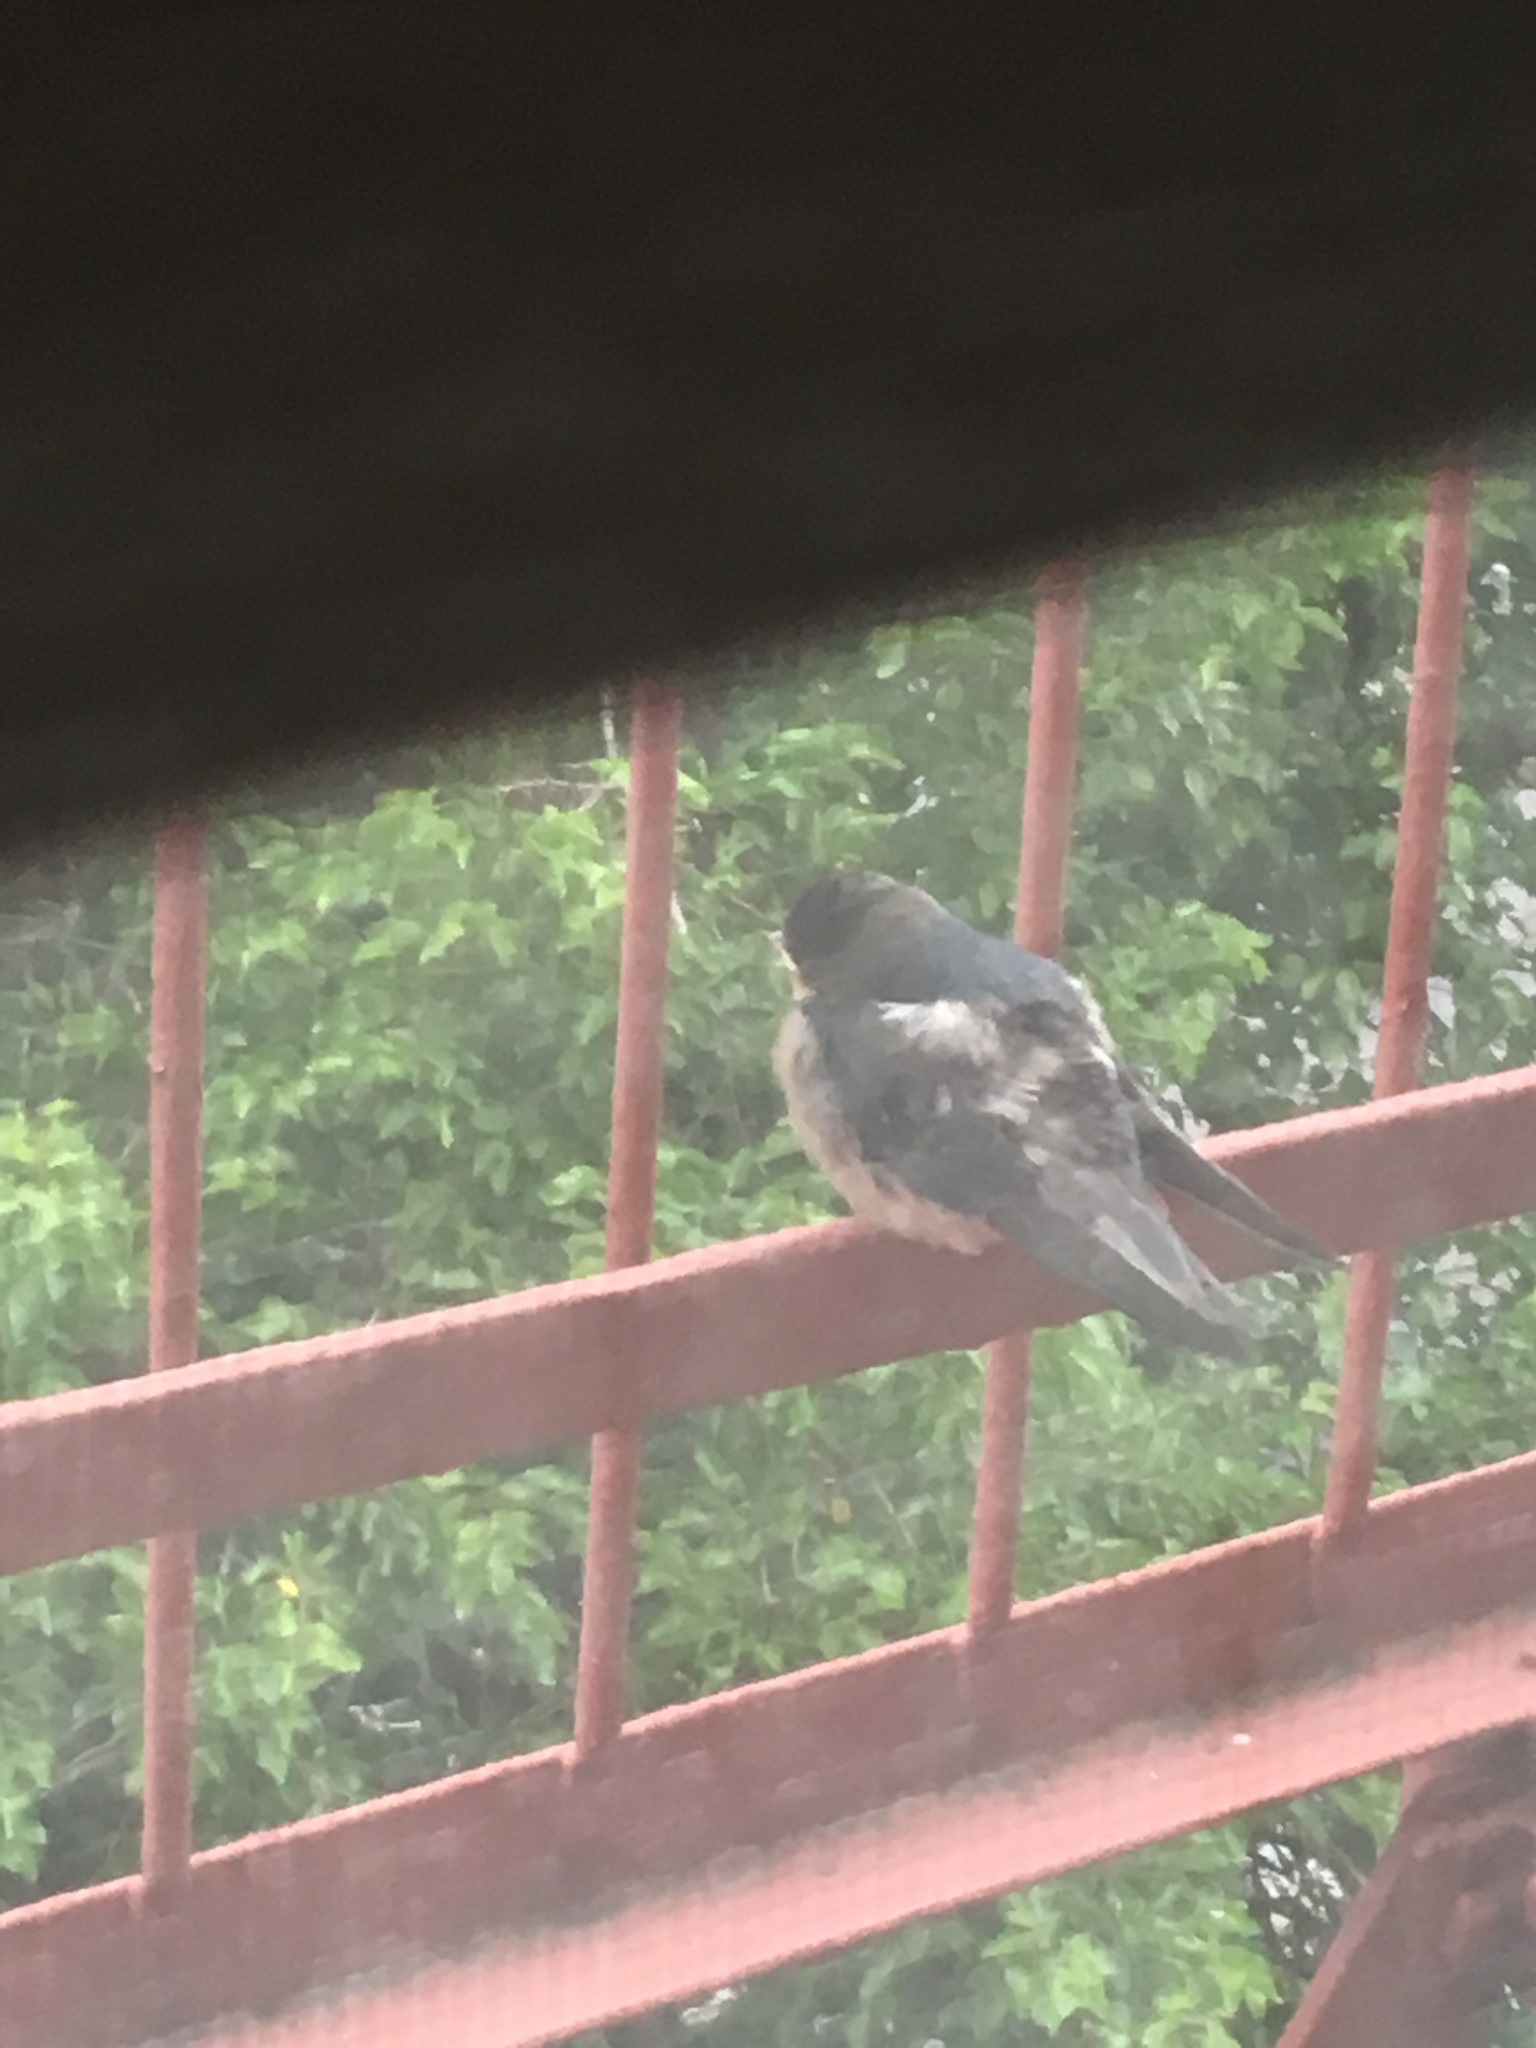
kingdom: Animalia
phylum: Chordata
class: Aves
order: Passeriformes
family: Hirundinidae
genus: Hirundo
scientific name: Hirundo rustica
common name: Barn swallow
